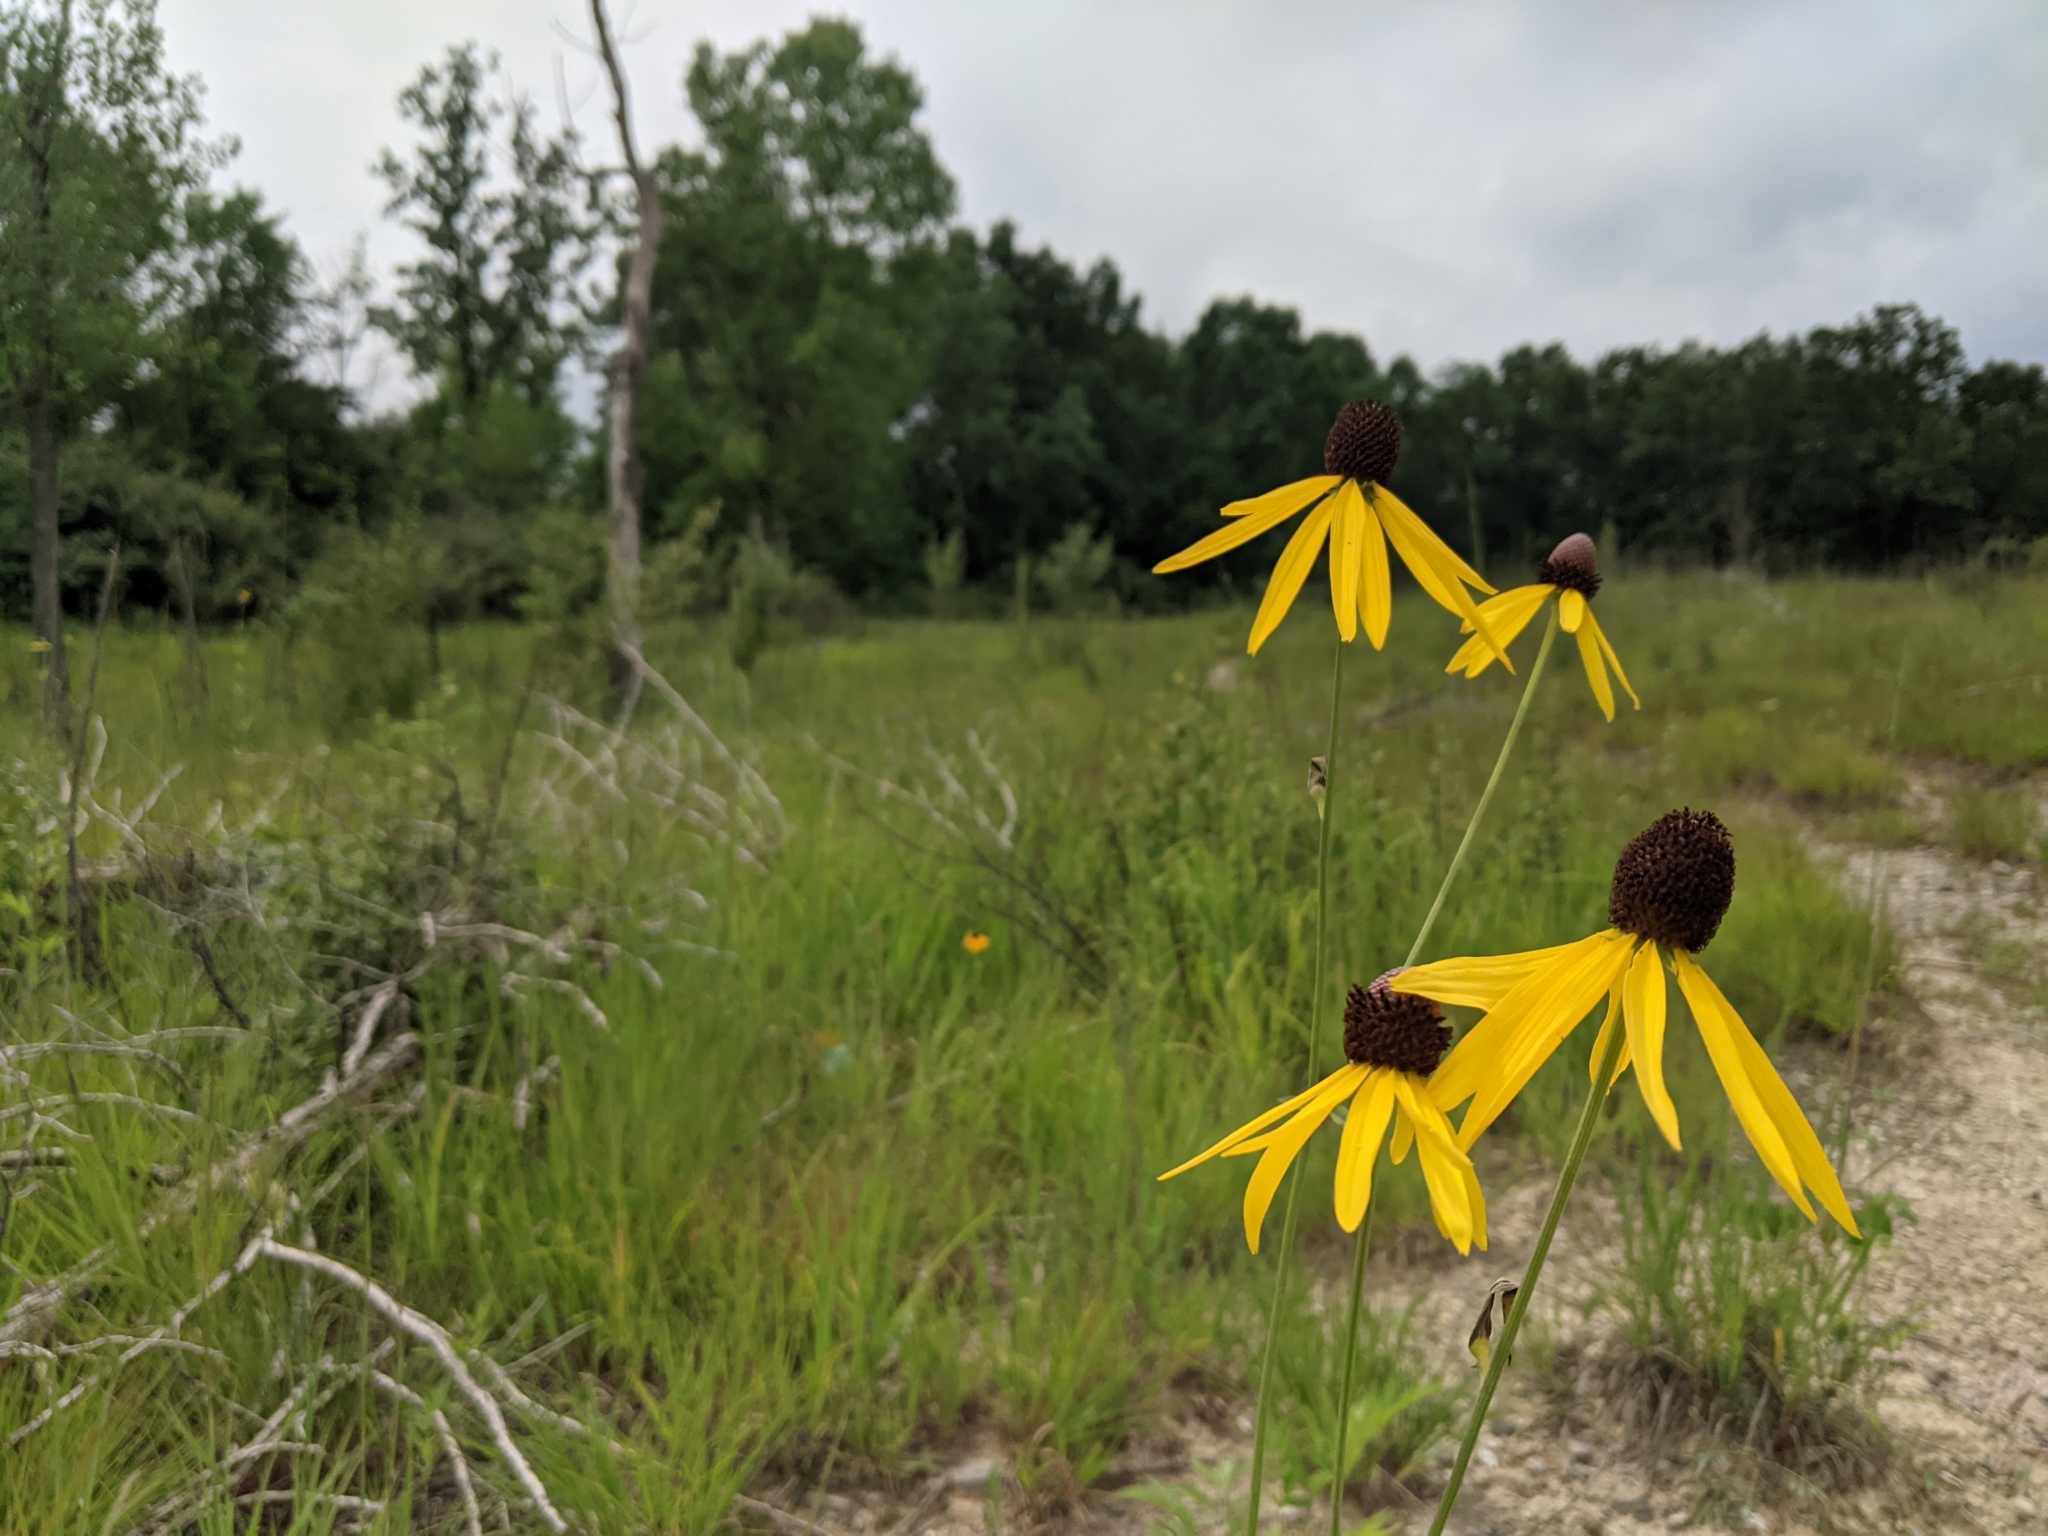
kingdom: Plantae
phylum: Tracheophyta
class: Magnoliopsida
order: Asterales
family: Asteraceae
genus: Ratibida
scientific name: Ratibida pinnata
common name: Drooping prairie-coneflower
